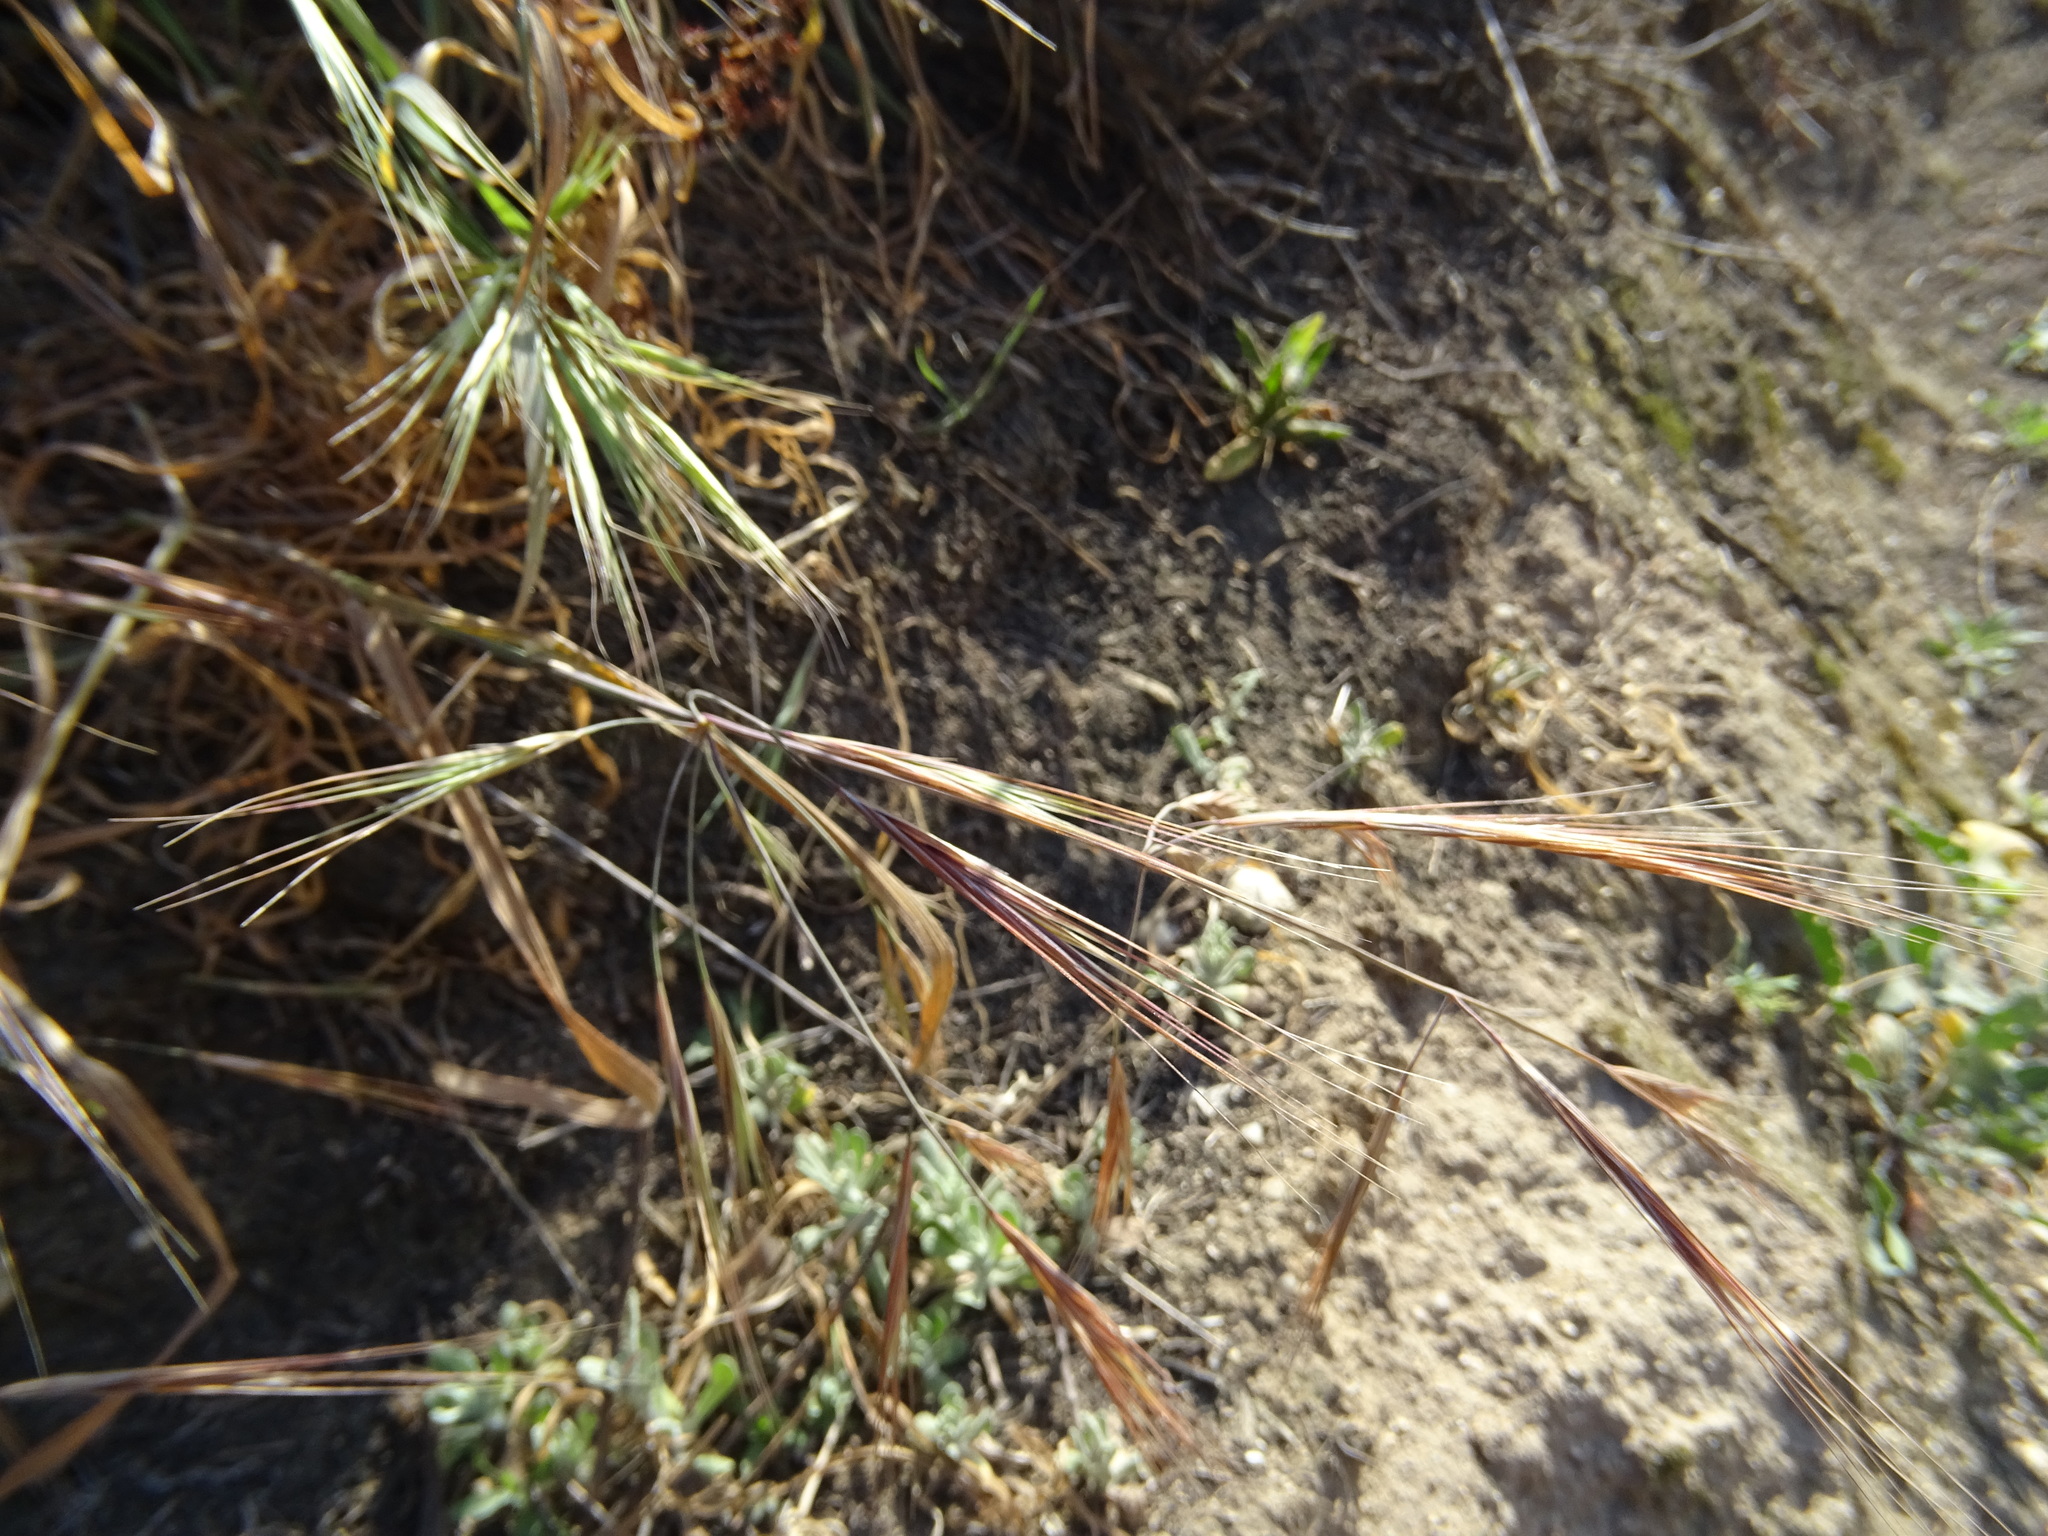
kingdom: Plantae
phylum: Tracheophyta
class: Liliopsida
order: Poales
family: Poaceae
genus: Bromus
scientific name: Bromus diandrus
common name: Ripgut brome
